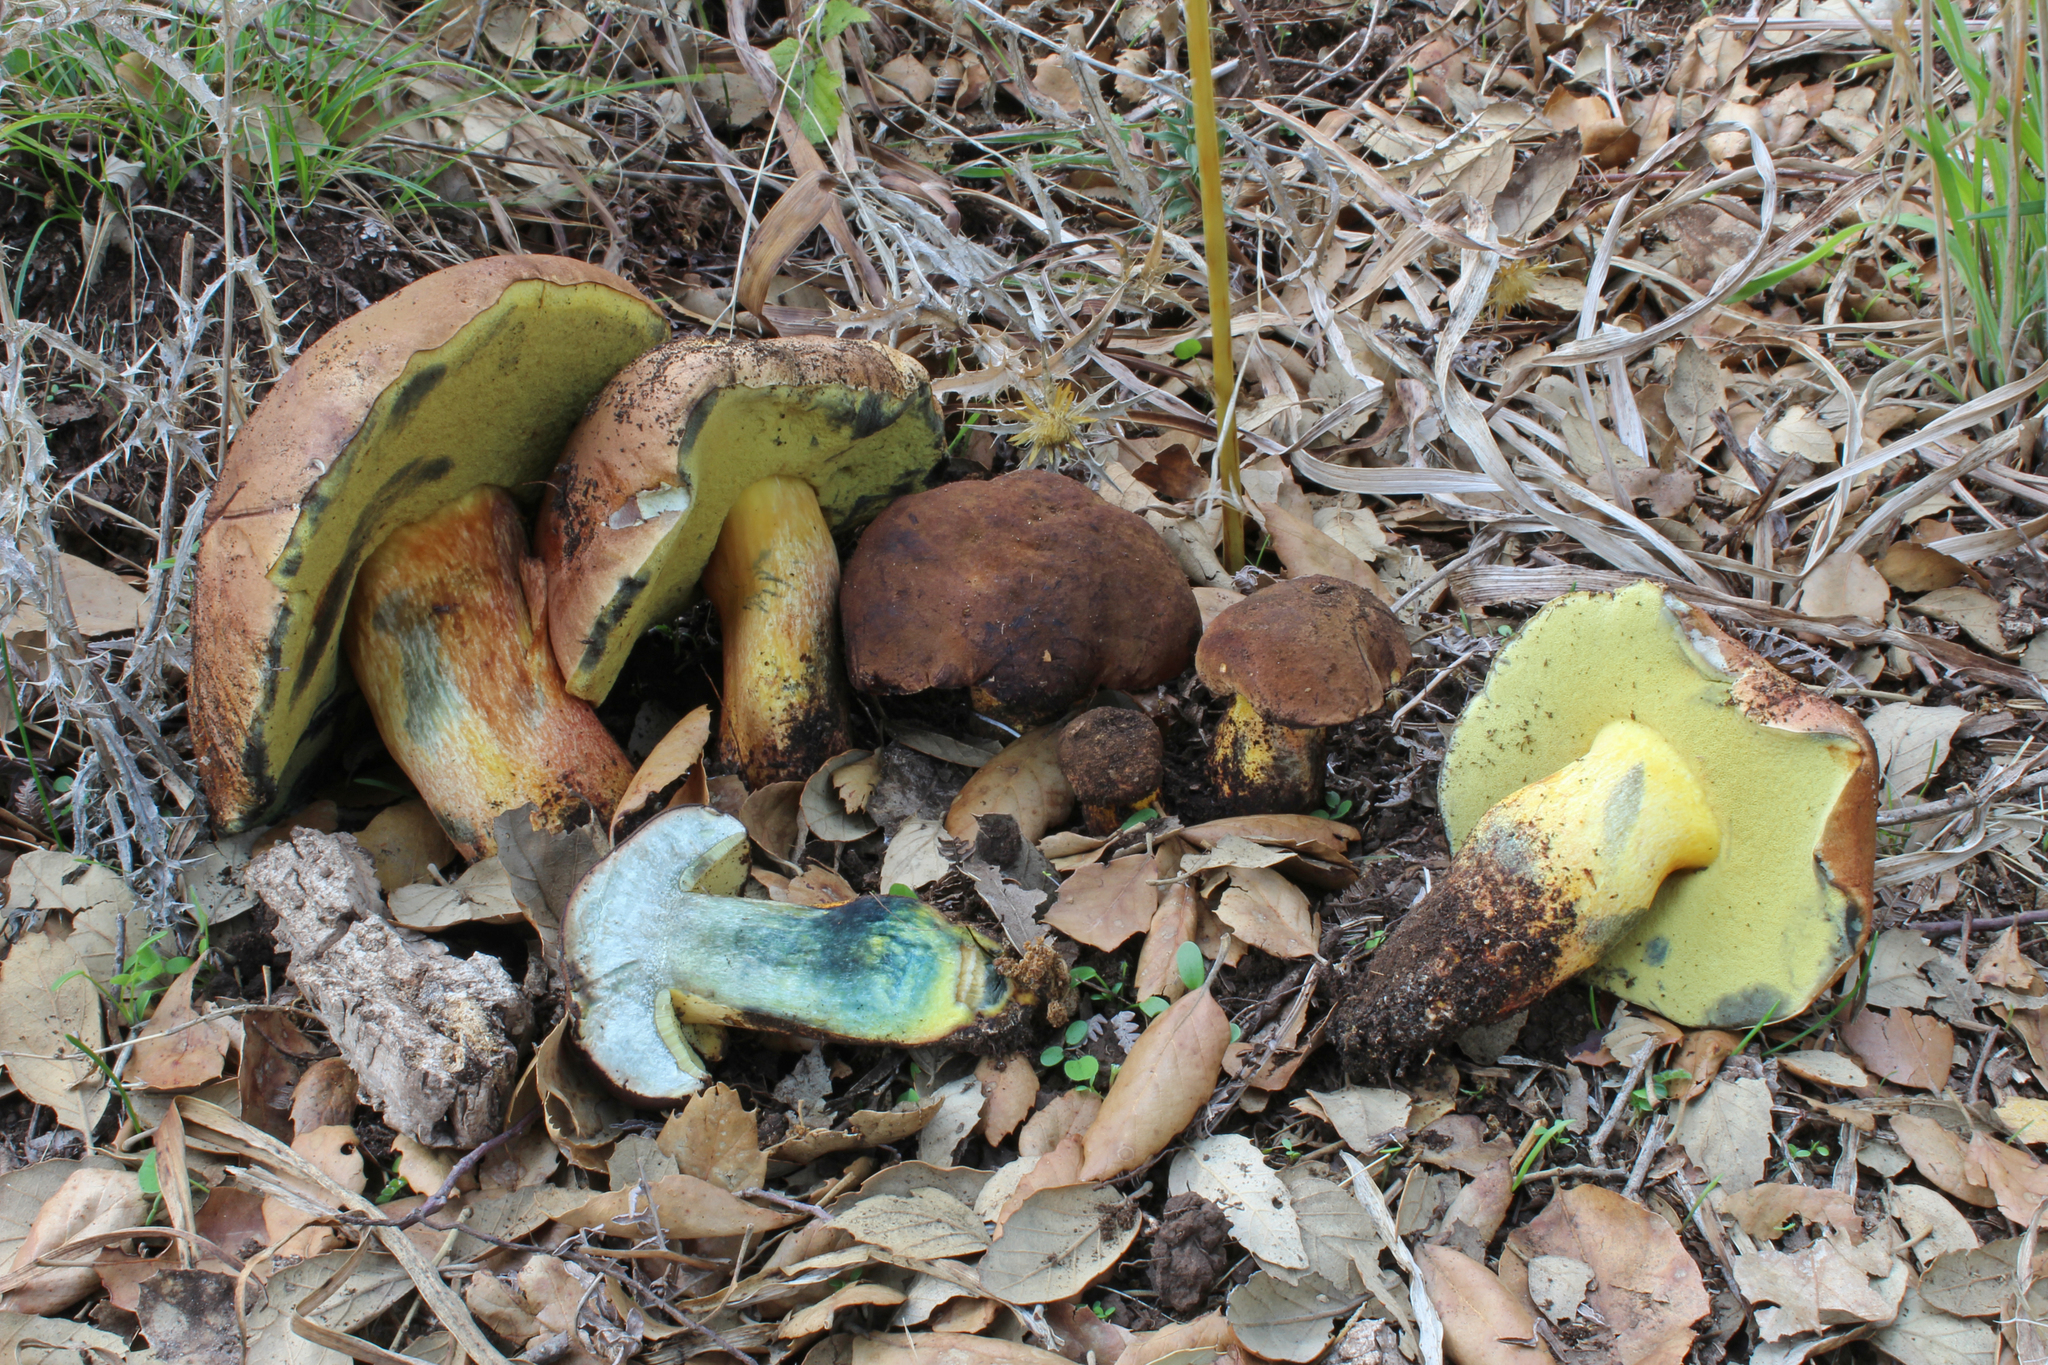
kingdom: Fungi
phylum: Basidiomycota
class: Agaricomycetes
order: Boletales
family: Boletaceae
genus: Lanmaoa
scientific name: Lanmaoa fragrans
